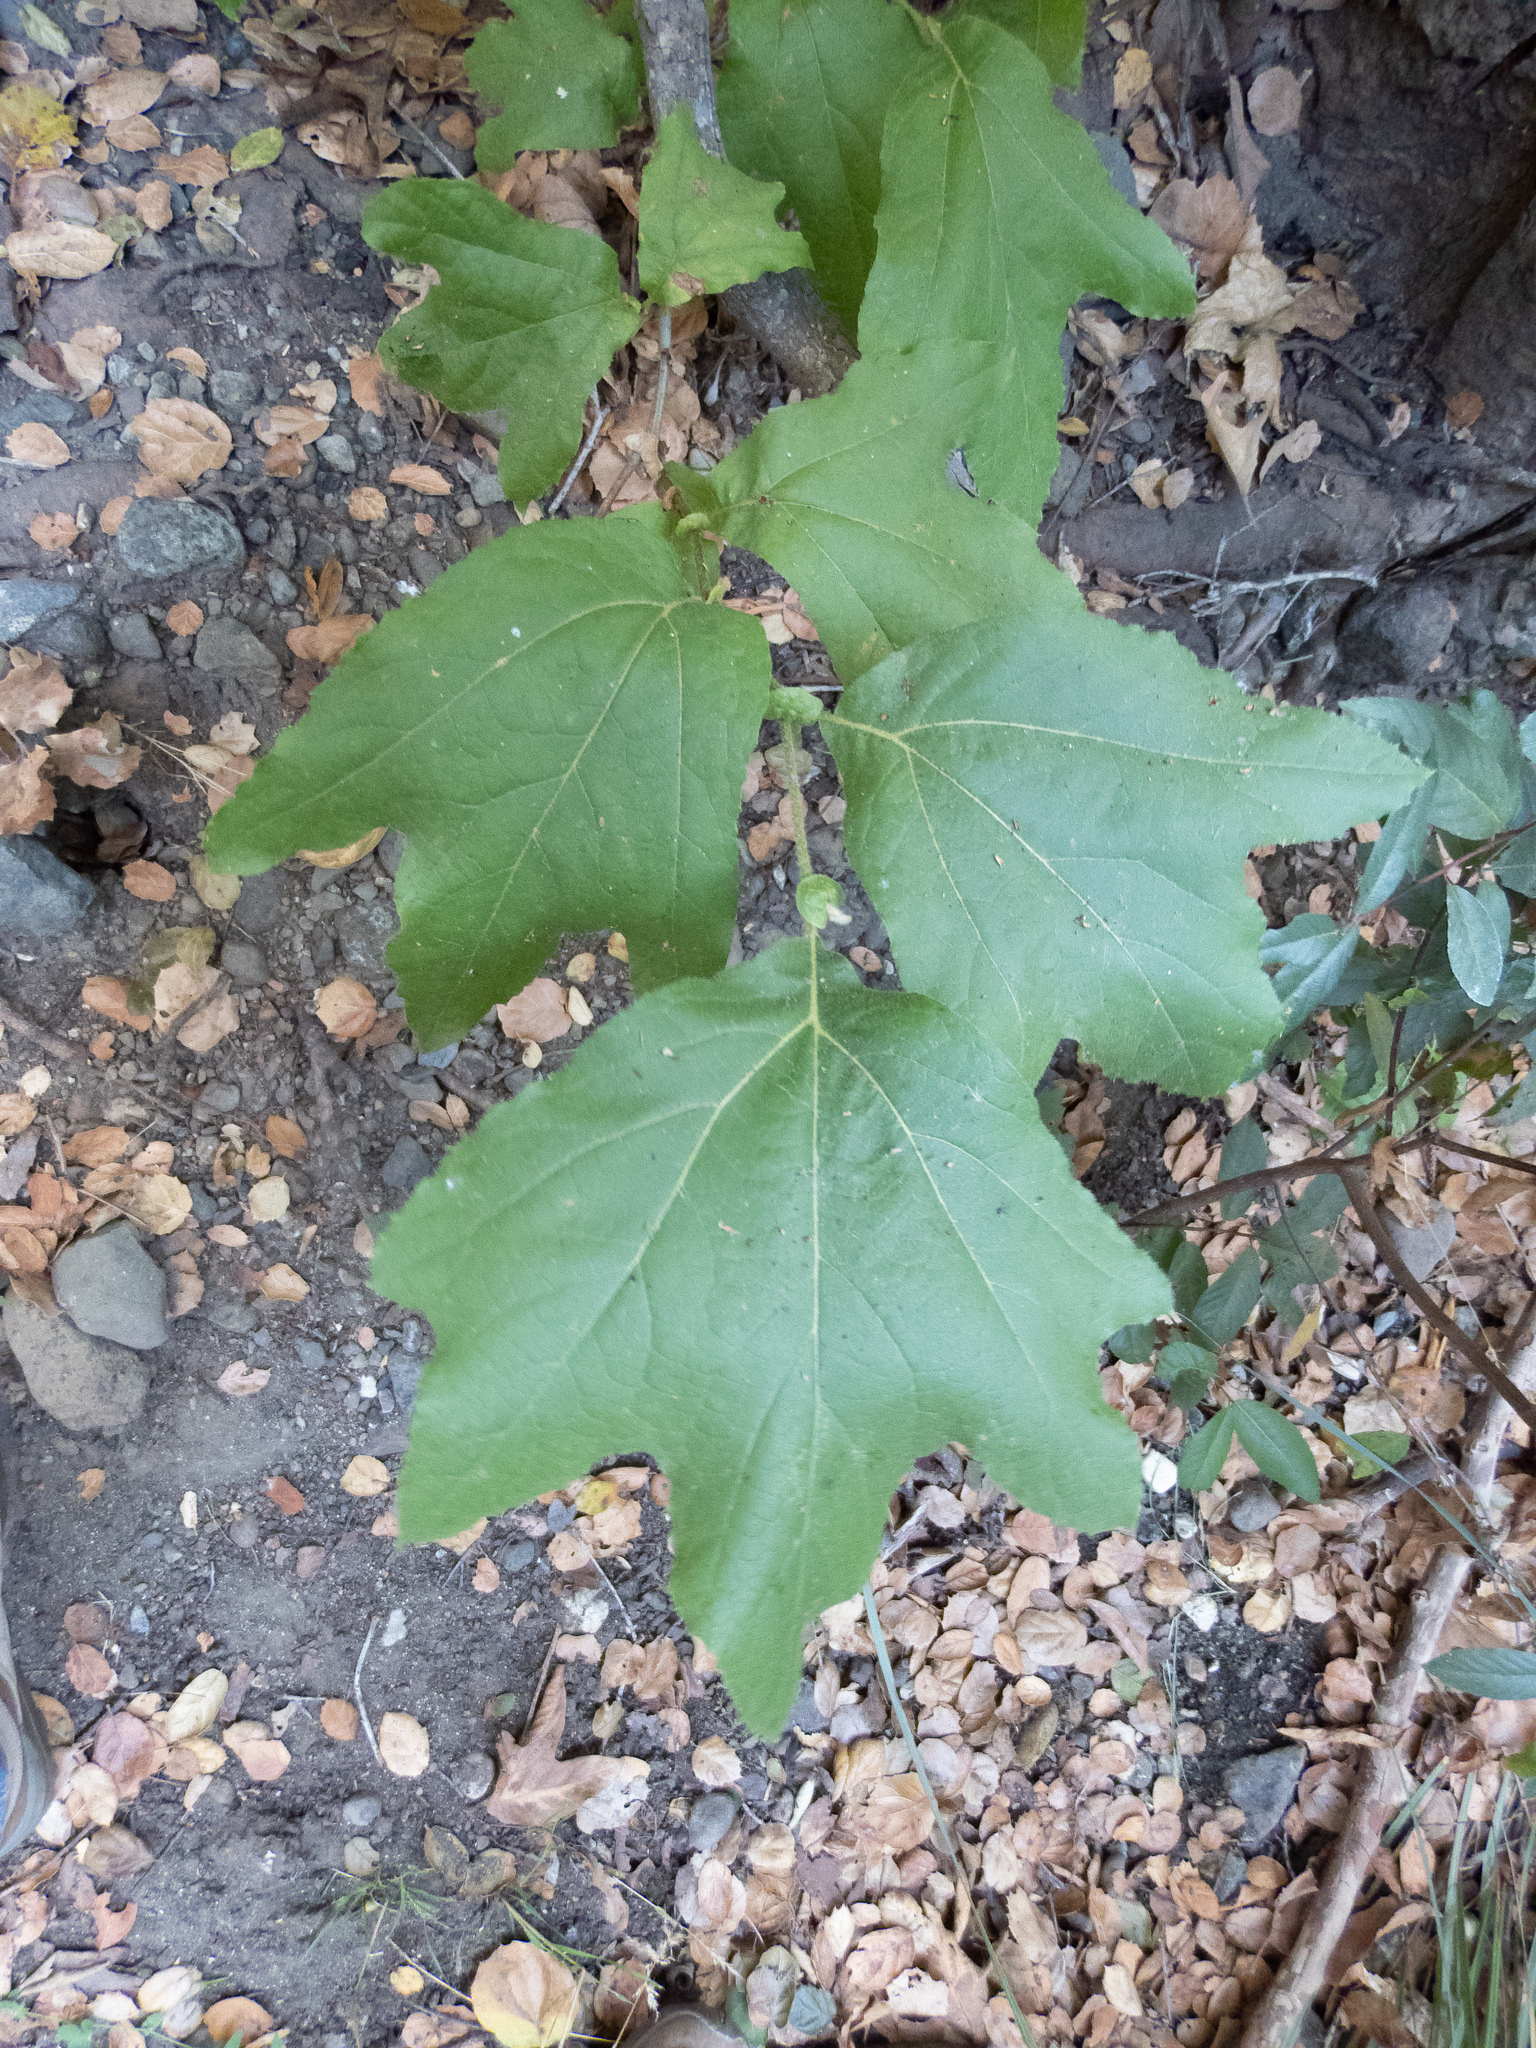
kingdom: Plantae
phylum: Tracheophyta
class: Magnoliopsida
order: Proteales
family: Platanaceae
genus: Platanus
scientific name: Platanus racemosa
